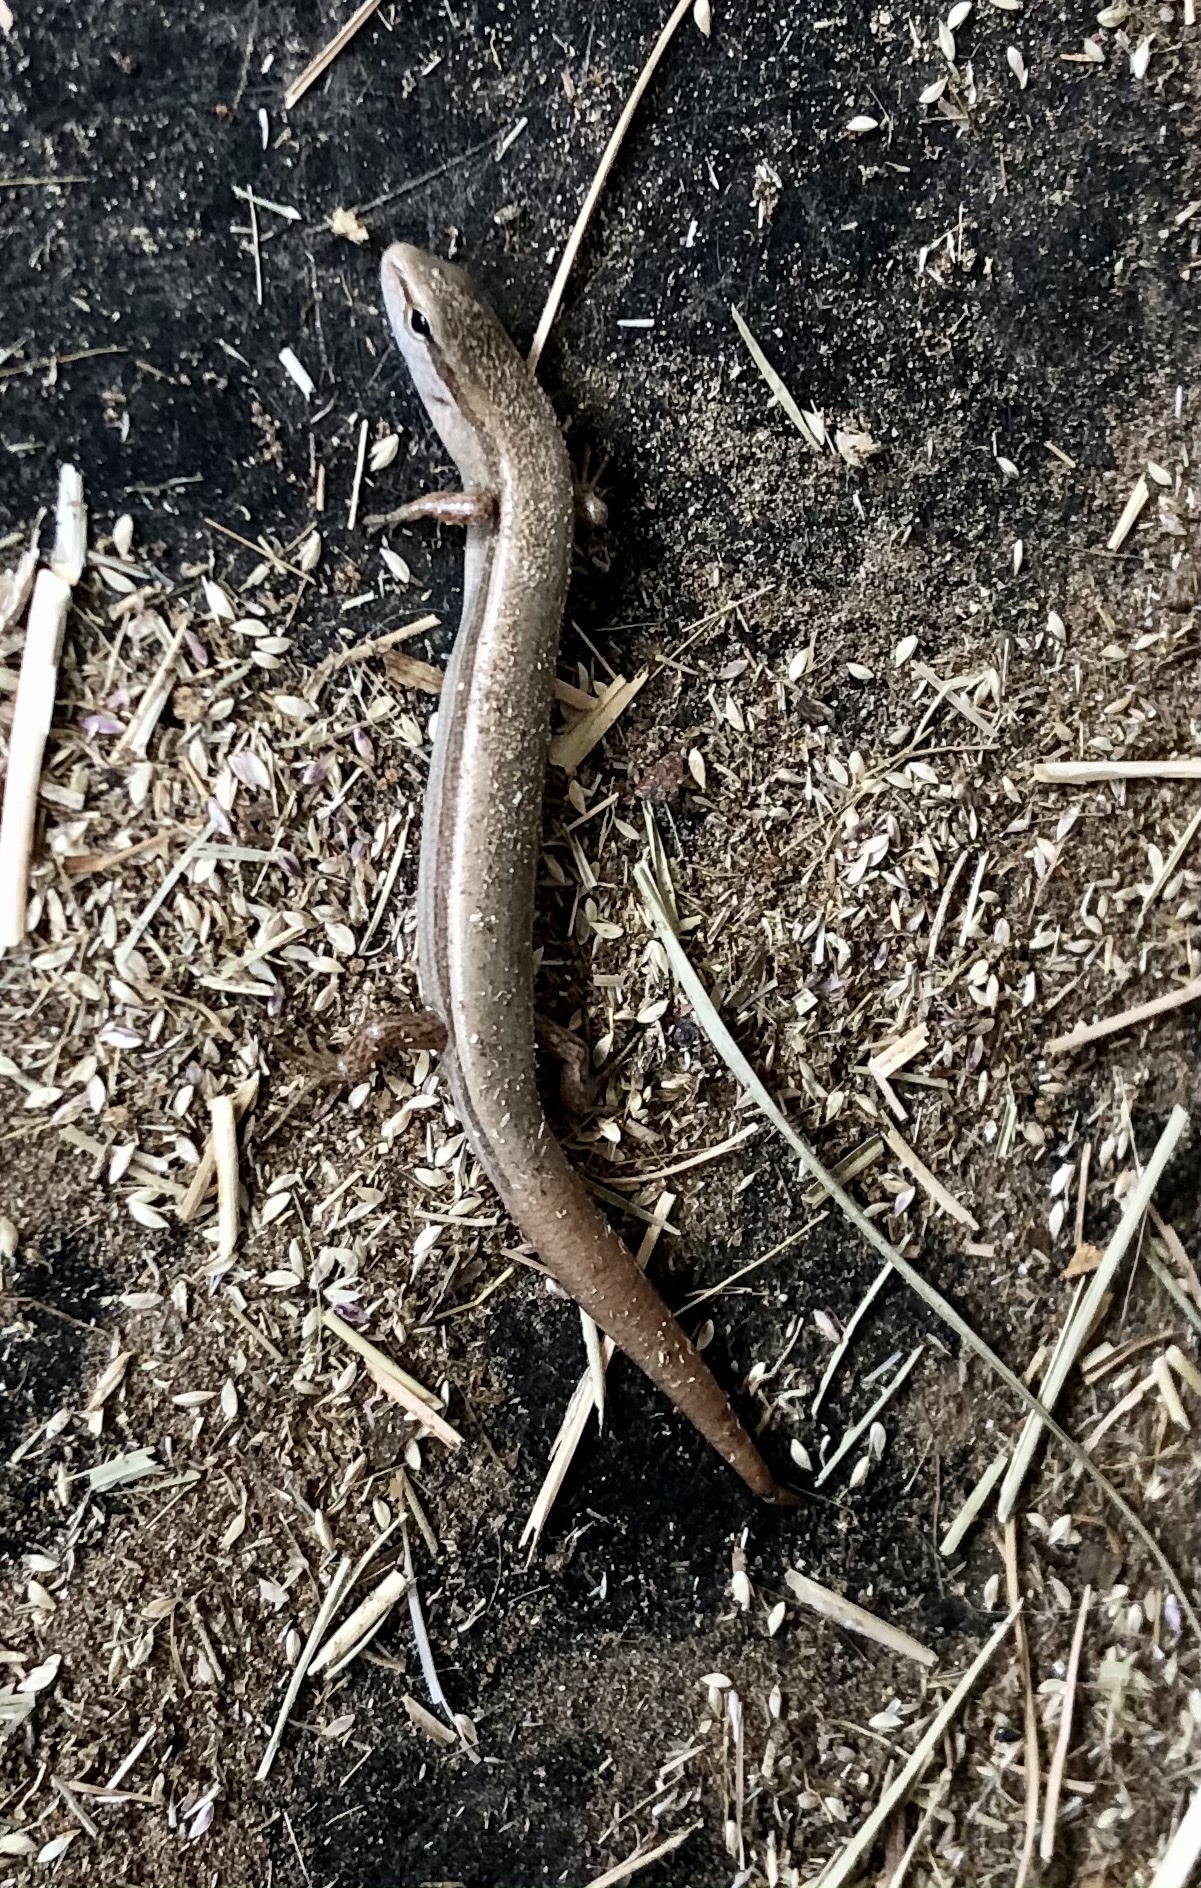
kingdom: Animalia
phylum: Chordata
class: Squamata
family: Scincidae
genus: Scincella
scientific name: Scincella lateralis
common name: Ground skink
